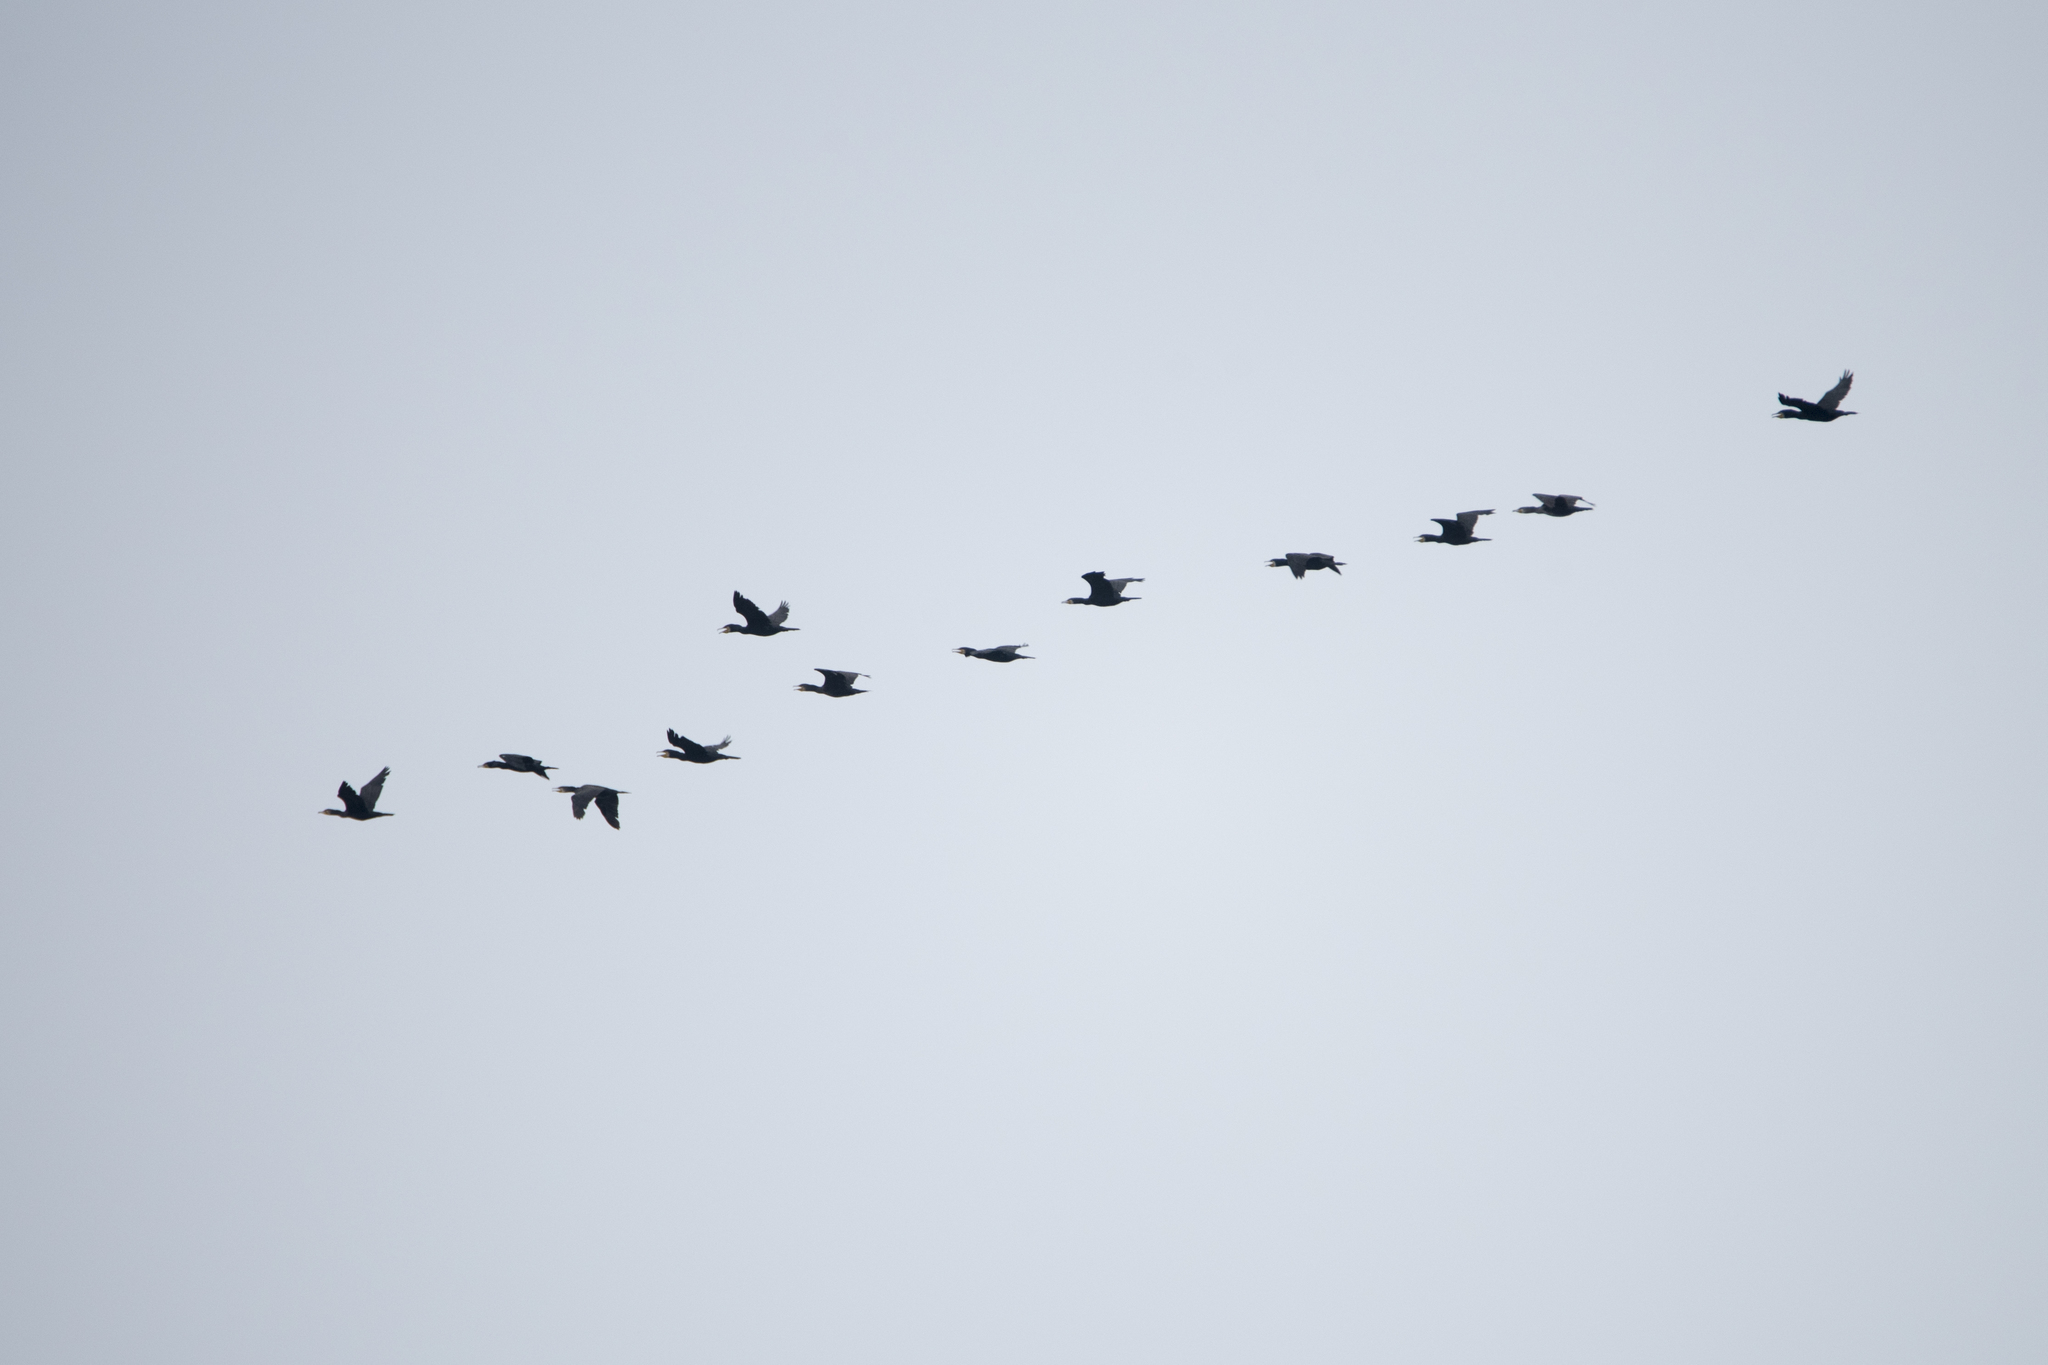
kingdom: Animalia
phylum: Chordata
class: Aves
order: Suliformes
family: Phalacrocoracidae
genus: Phalacrocorax
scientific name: Phalacrocorax carbo
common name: Great cormorant
